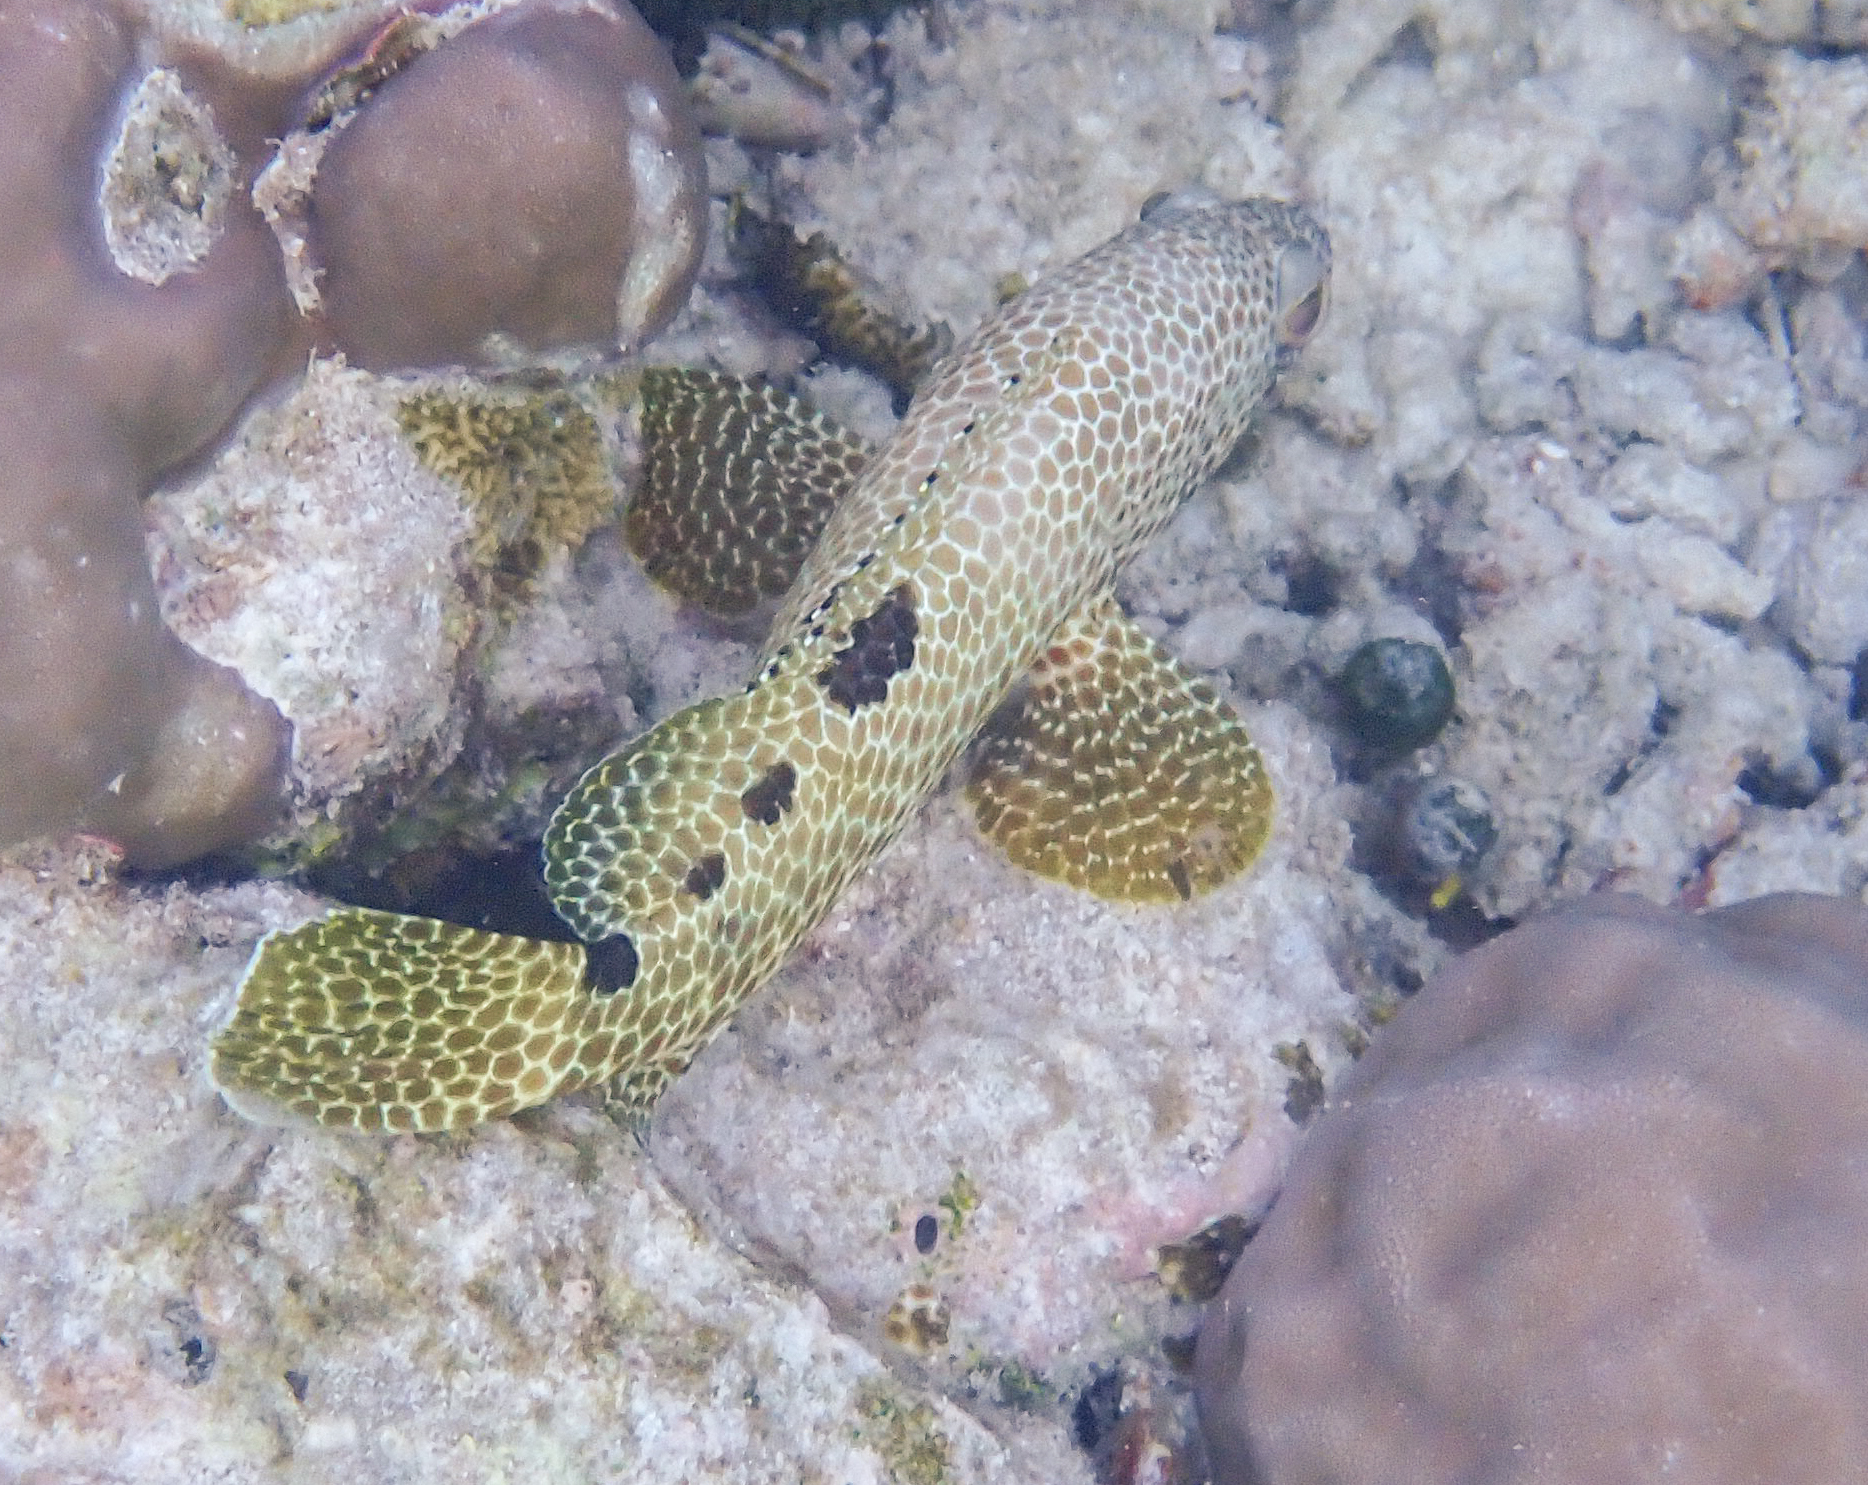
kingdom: Animalia
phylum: Chordata
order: Perciformes
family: Serranidae
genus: Epinephelus
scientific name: Epinephelus spilotoceps
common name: Foursaddle grouper
